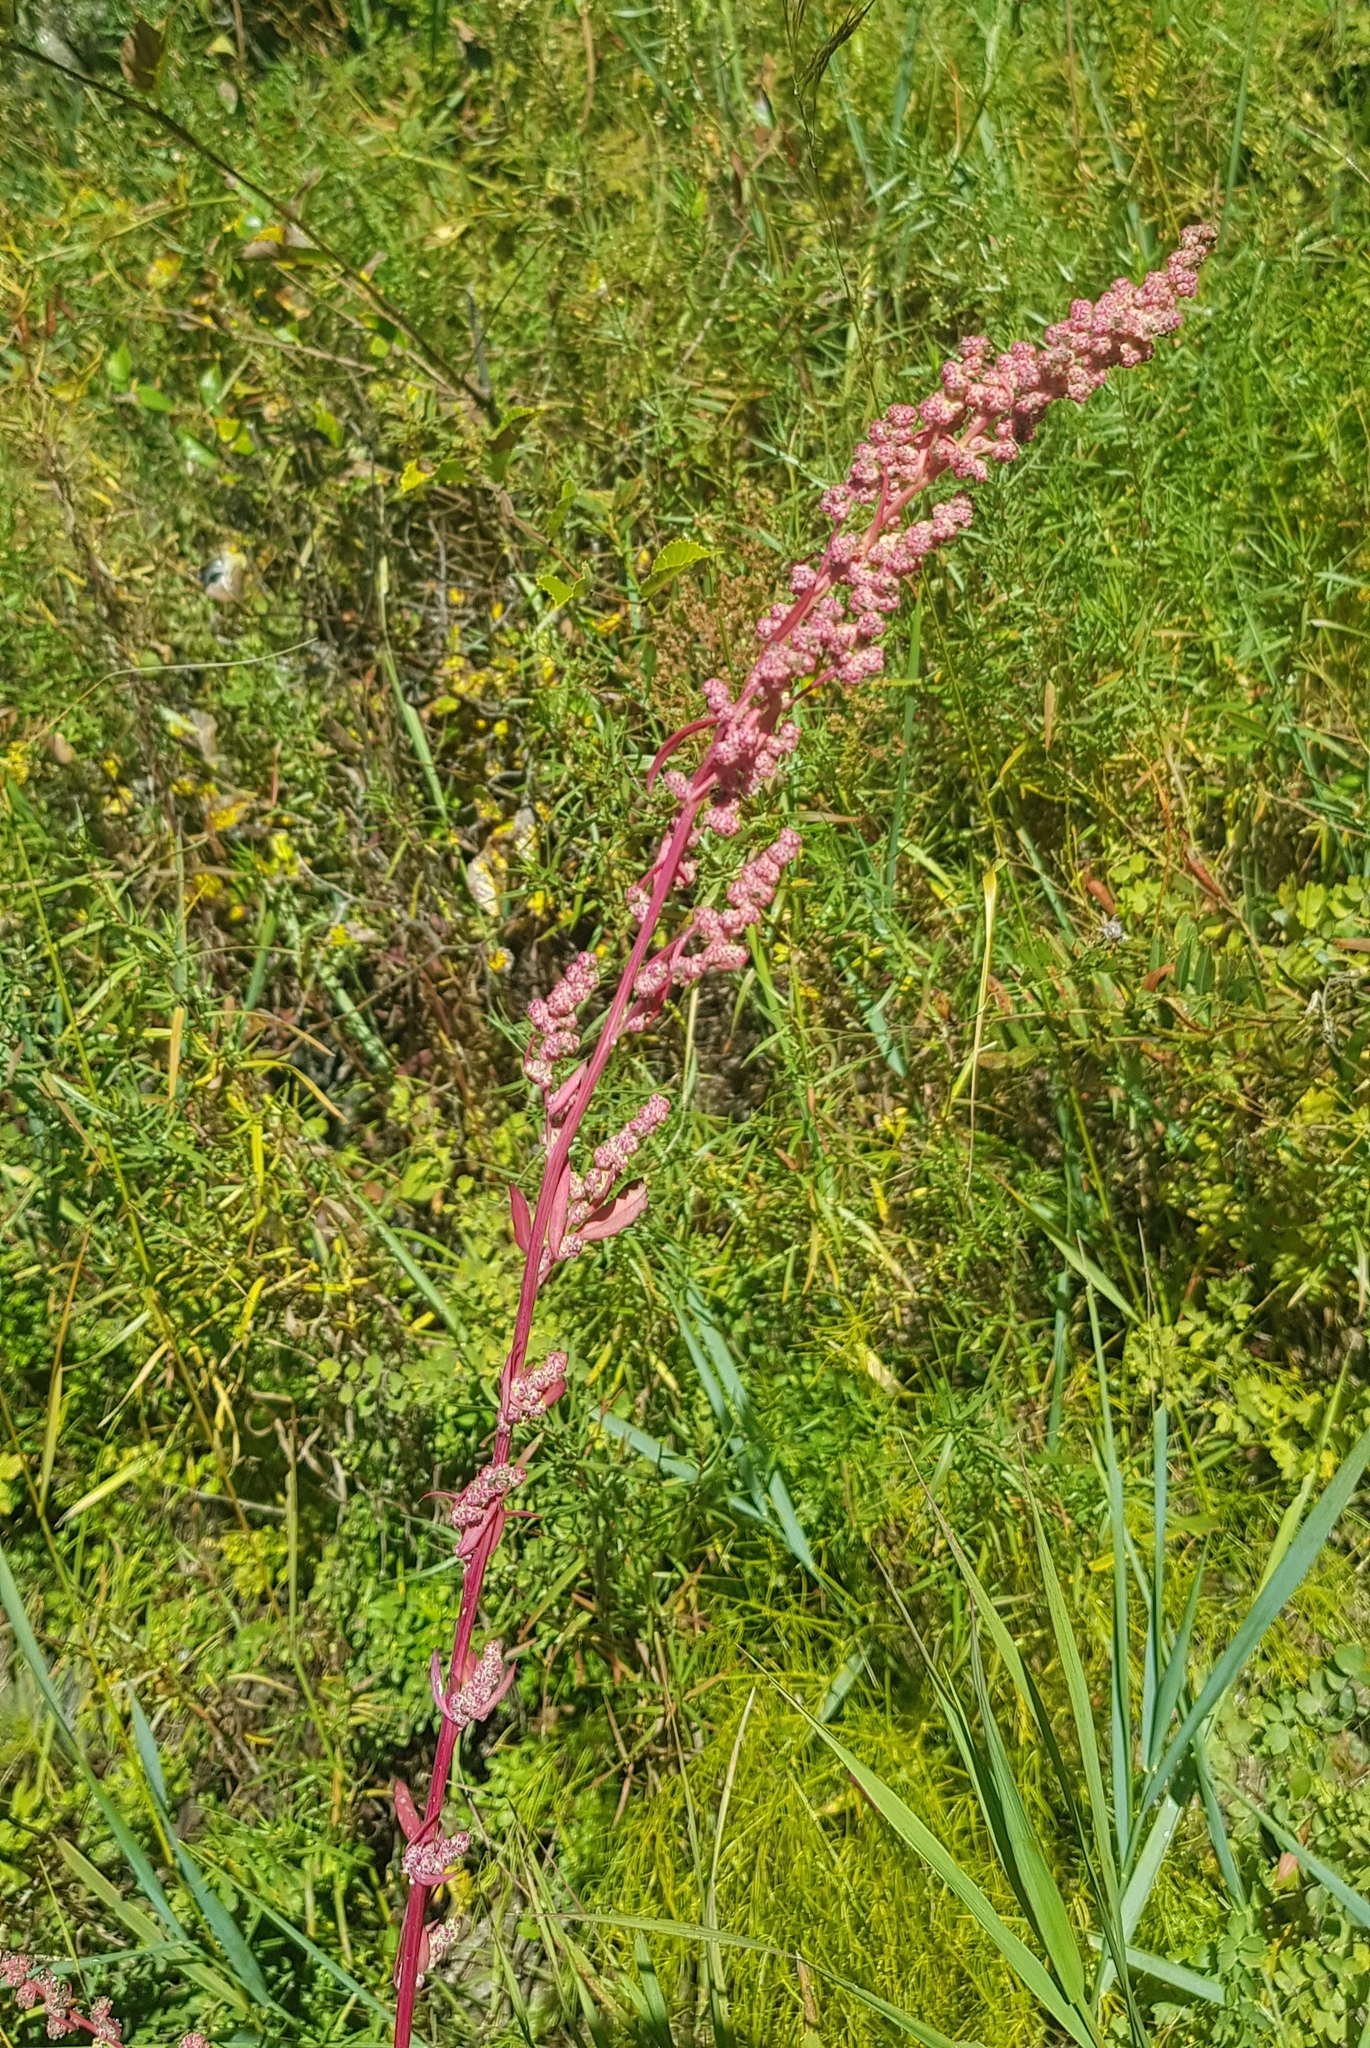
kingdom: Plantae
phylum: Tracheophyta
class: Magnoliopsida
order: Caryophyllales
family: Amaranthaceae
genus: Chenopodium
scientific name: Chenopodium album
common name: Fat-hen
